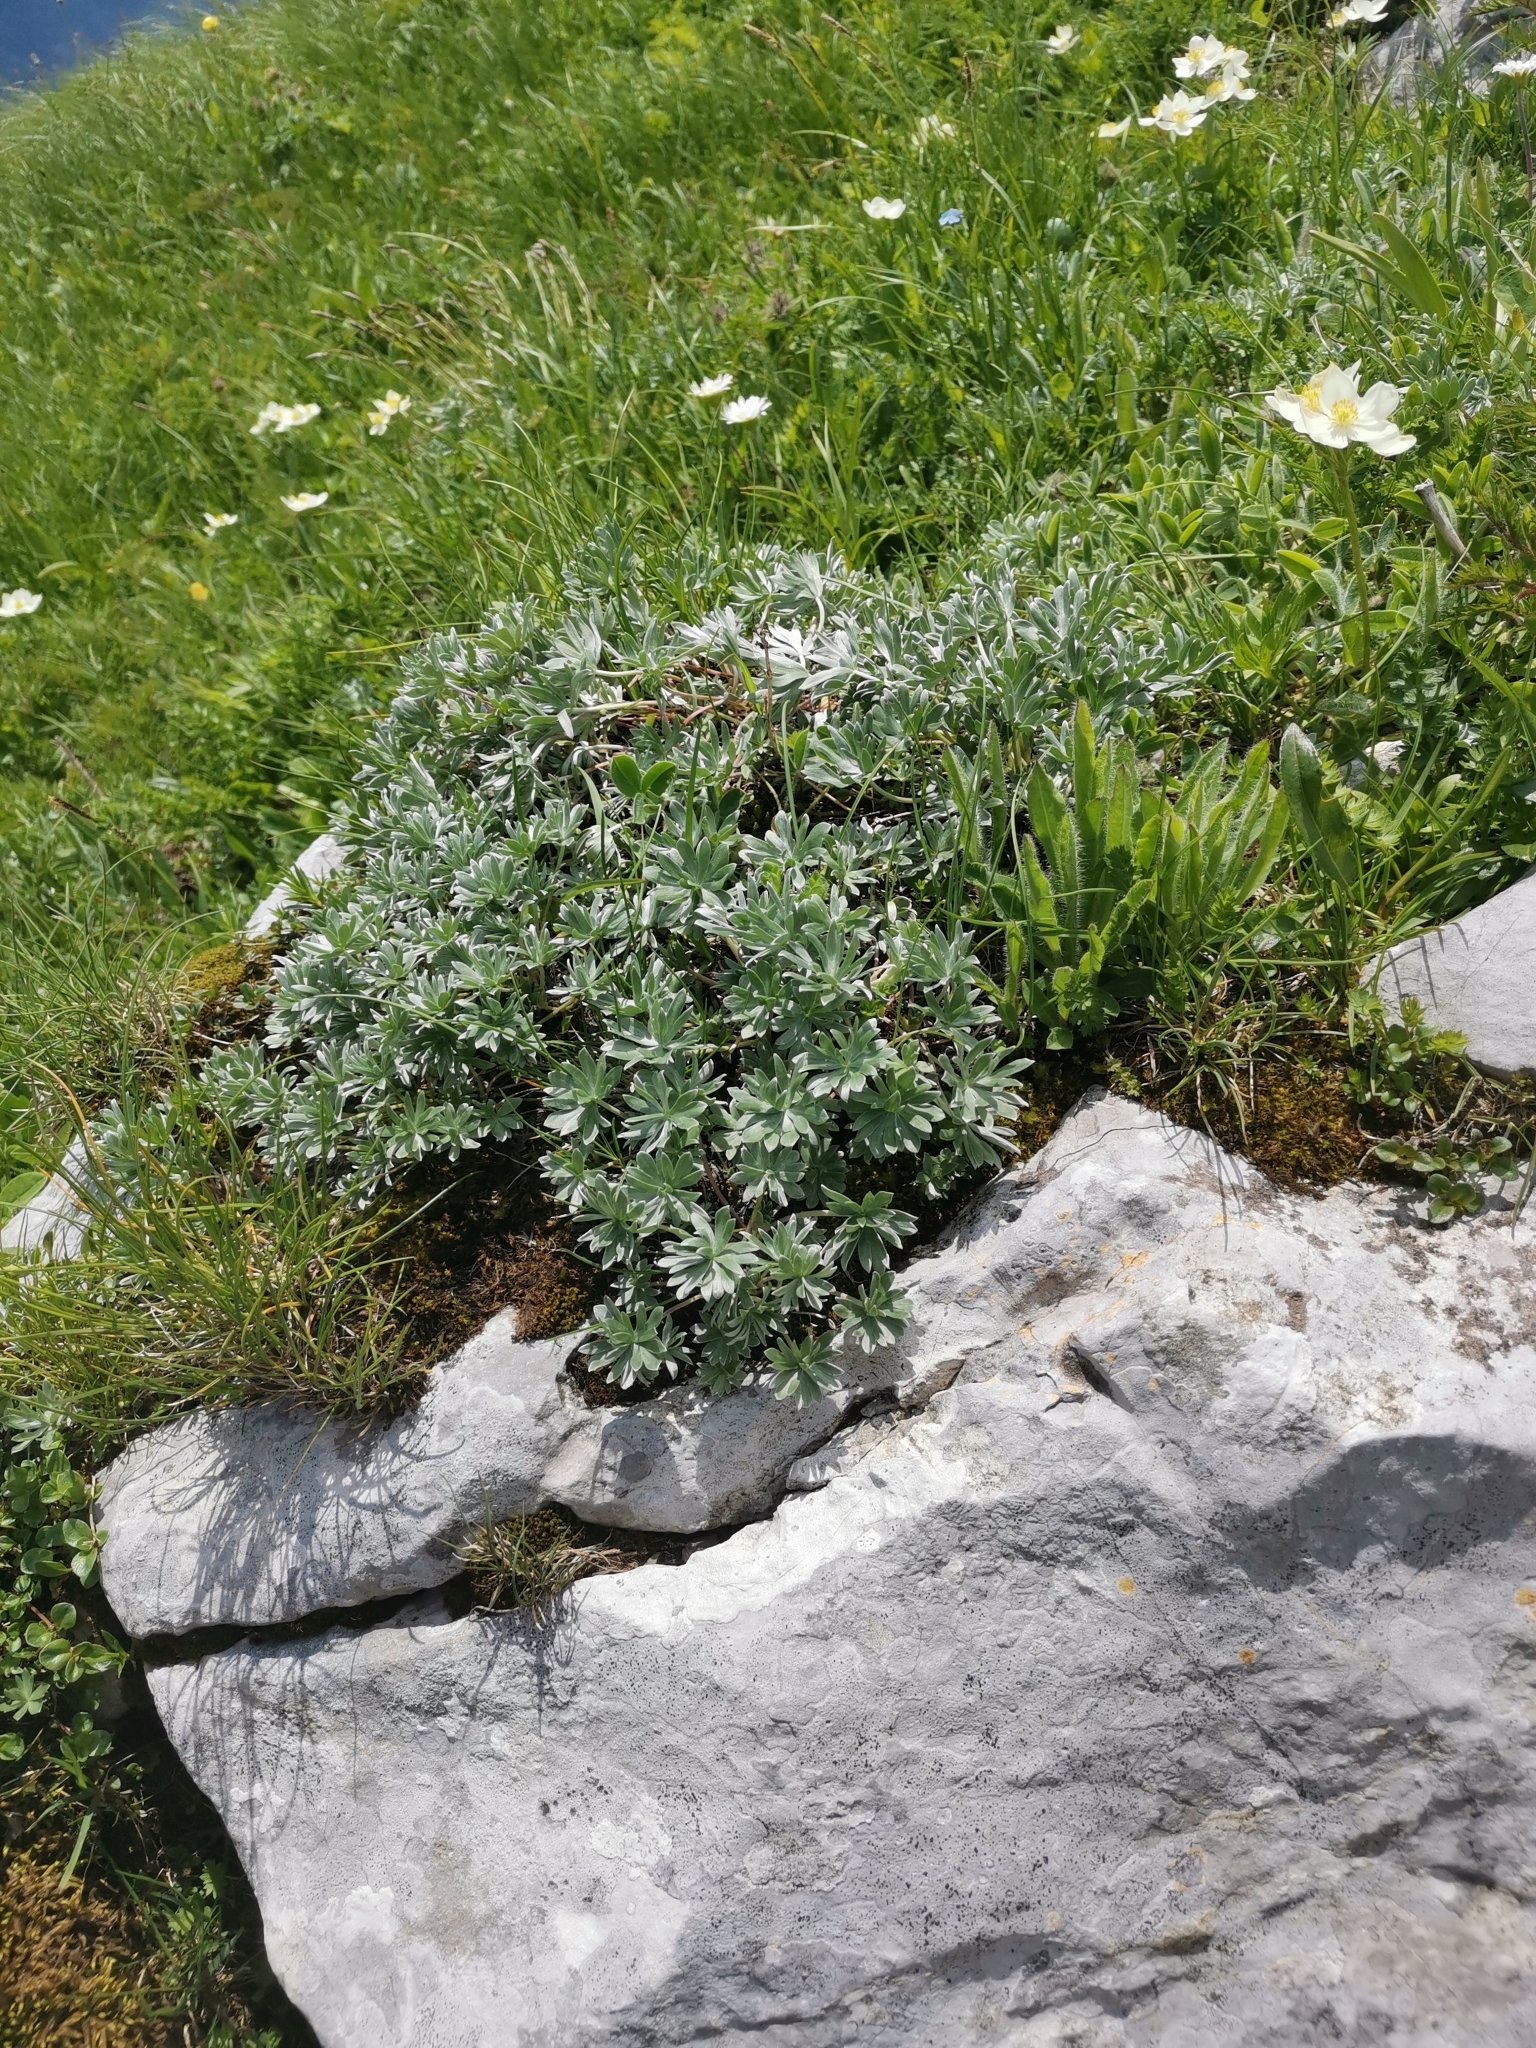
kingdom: Plantae
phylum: Tracheophyta
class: Magnoliopsida
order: Geraniales
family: Geraniaceae
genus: Geranium
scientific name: Geranium argenteum
